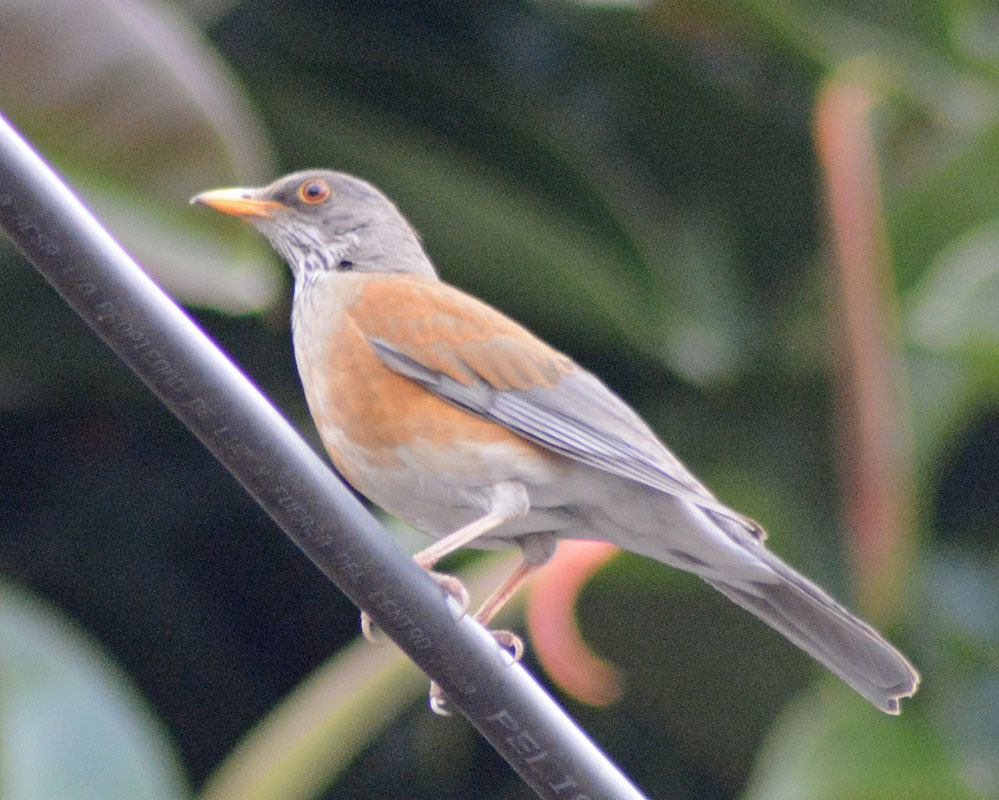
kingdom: Animalia
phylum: Chordata
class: Aves
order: Passeriformes
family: Turdidae
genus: Turdus
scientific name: Turdus rufopalliatus
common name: Rufous-backed robin
